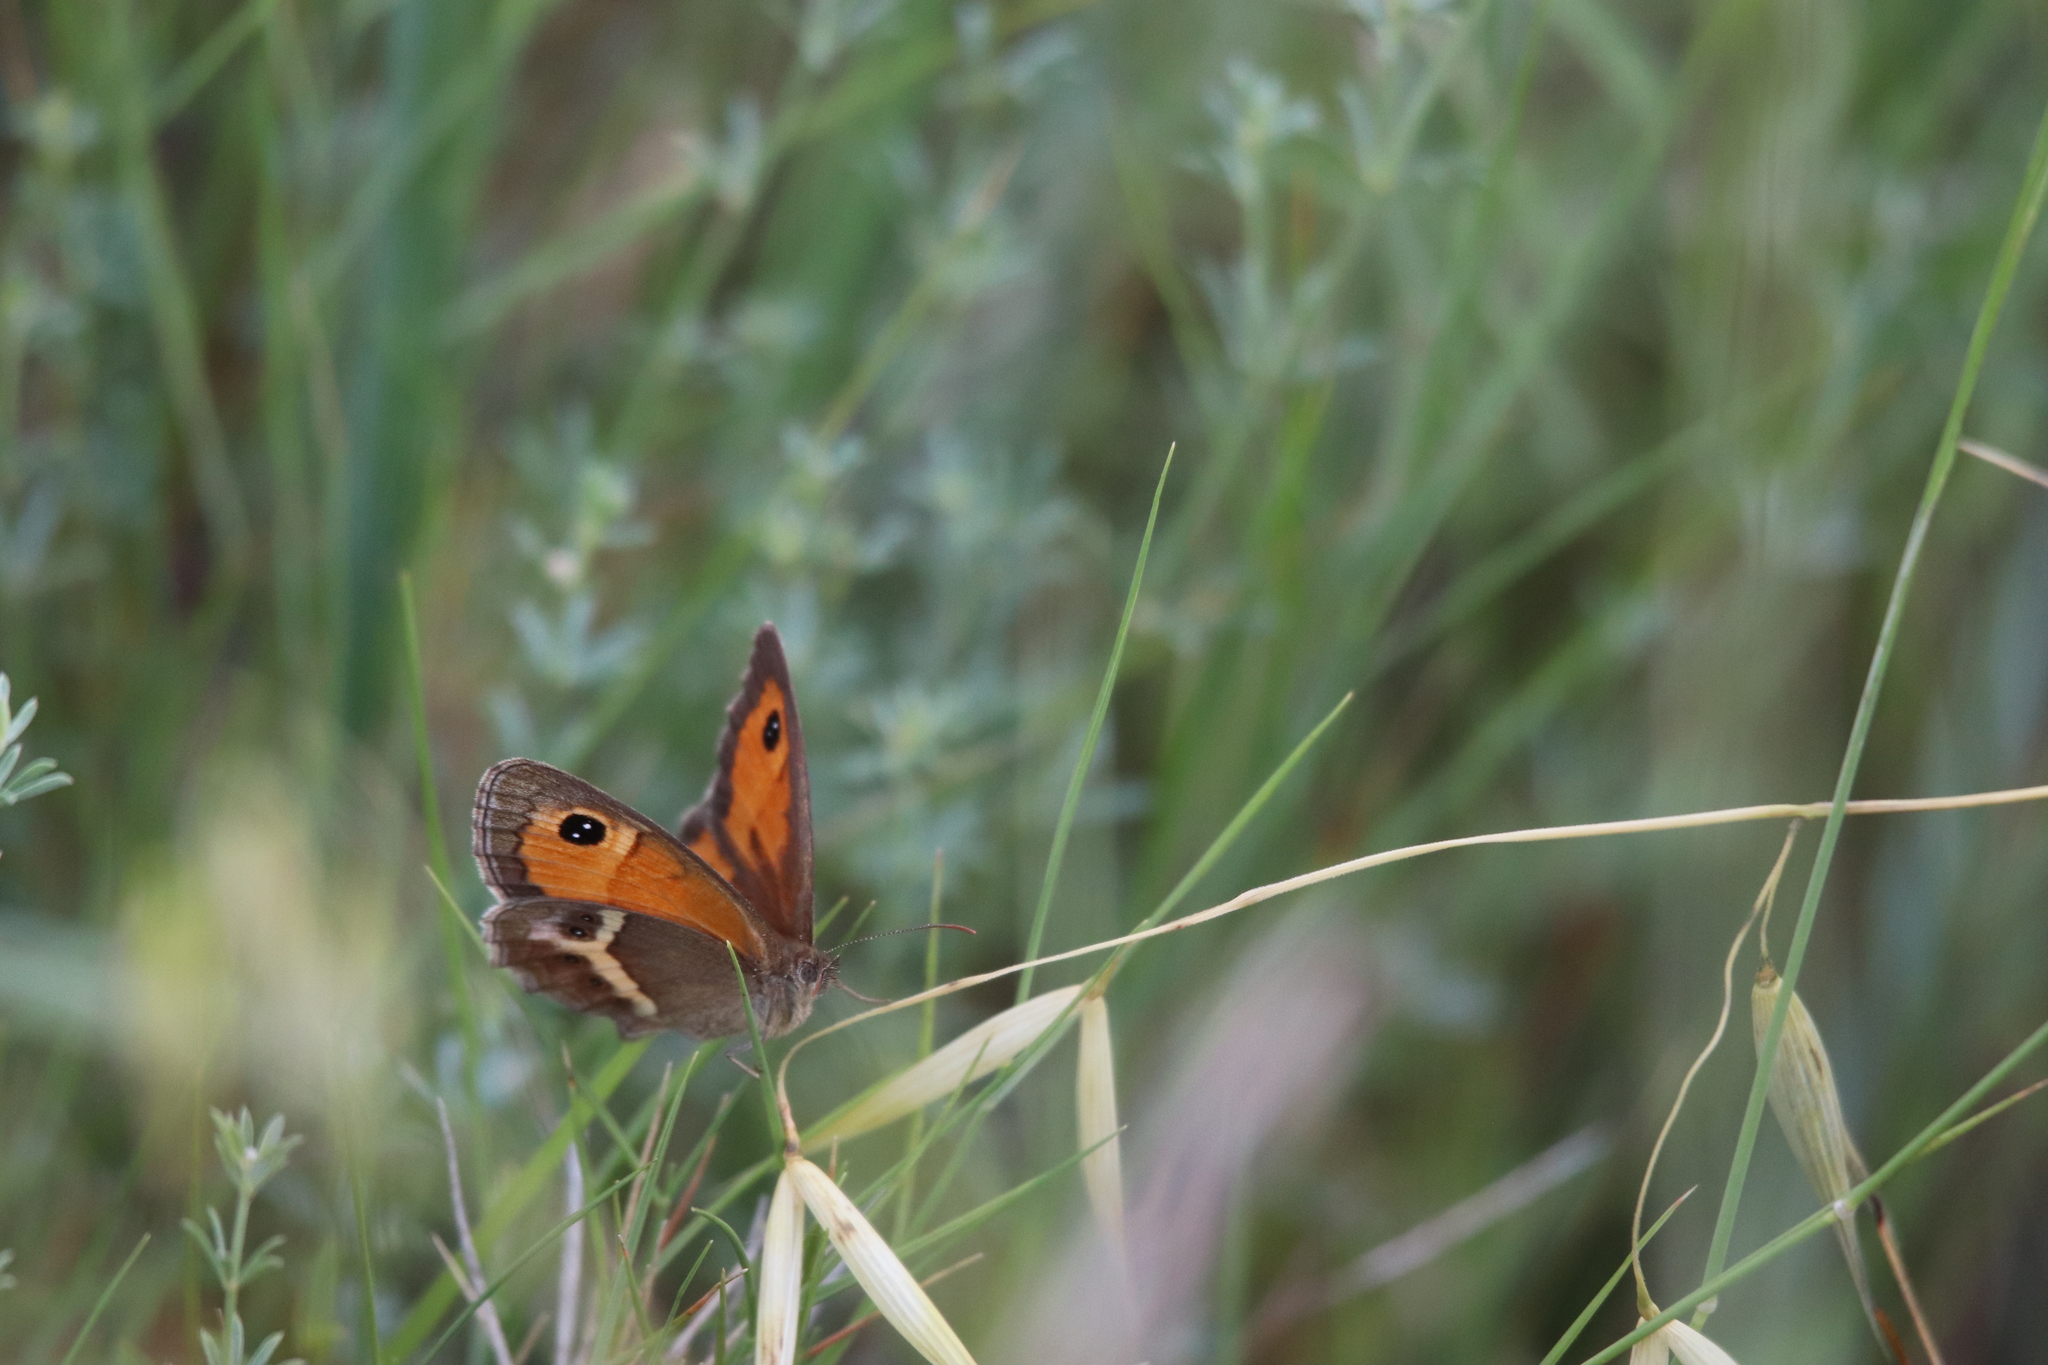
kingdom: Animalia
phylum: Arthropoda
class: Insecta
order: Lepidoptera
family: Nymphalidae
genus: Pyronia
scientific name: Pyronia bathseba
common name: Spanish gatekeeper
